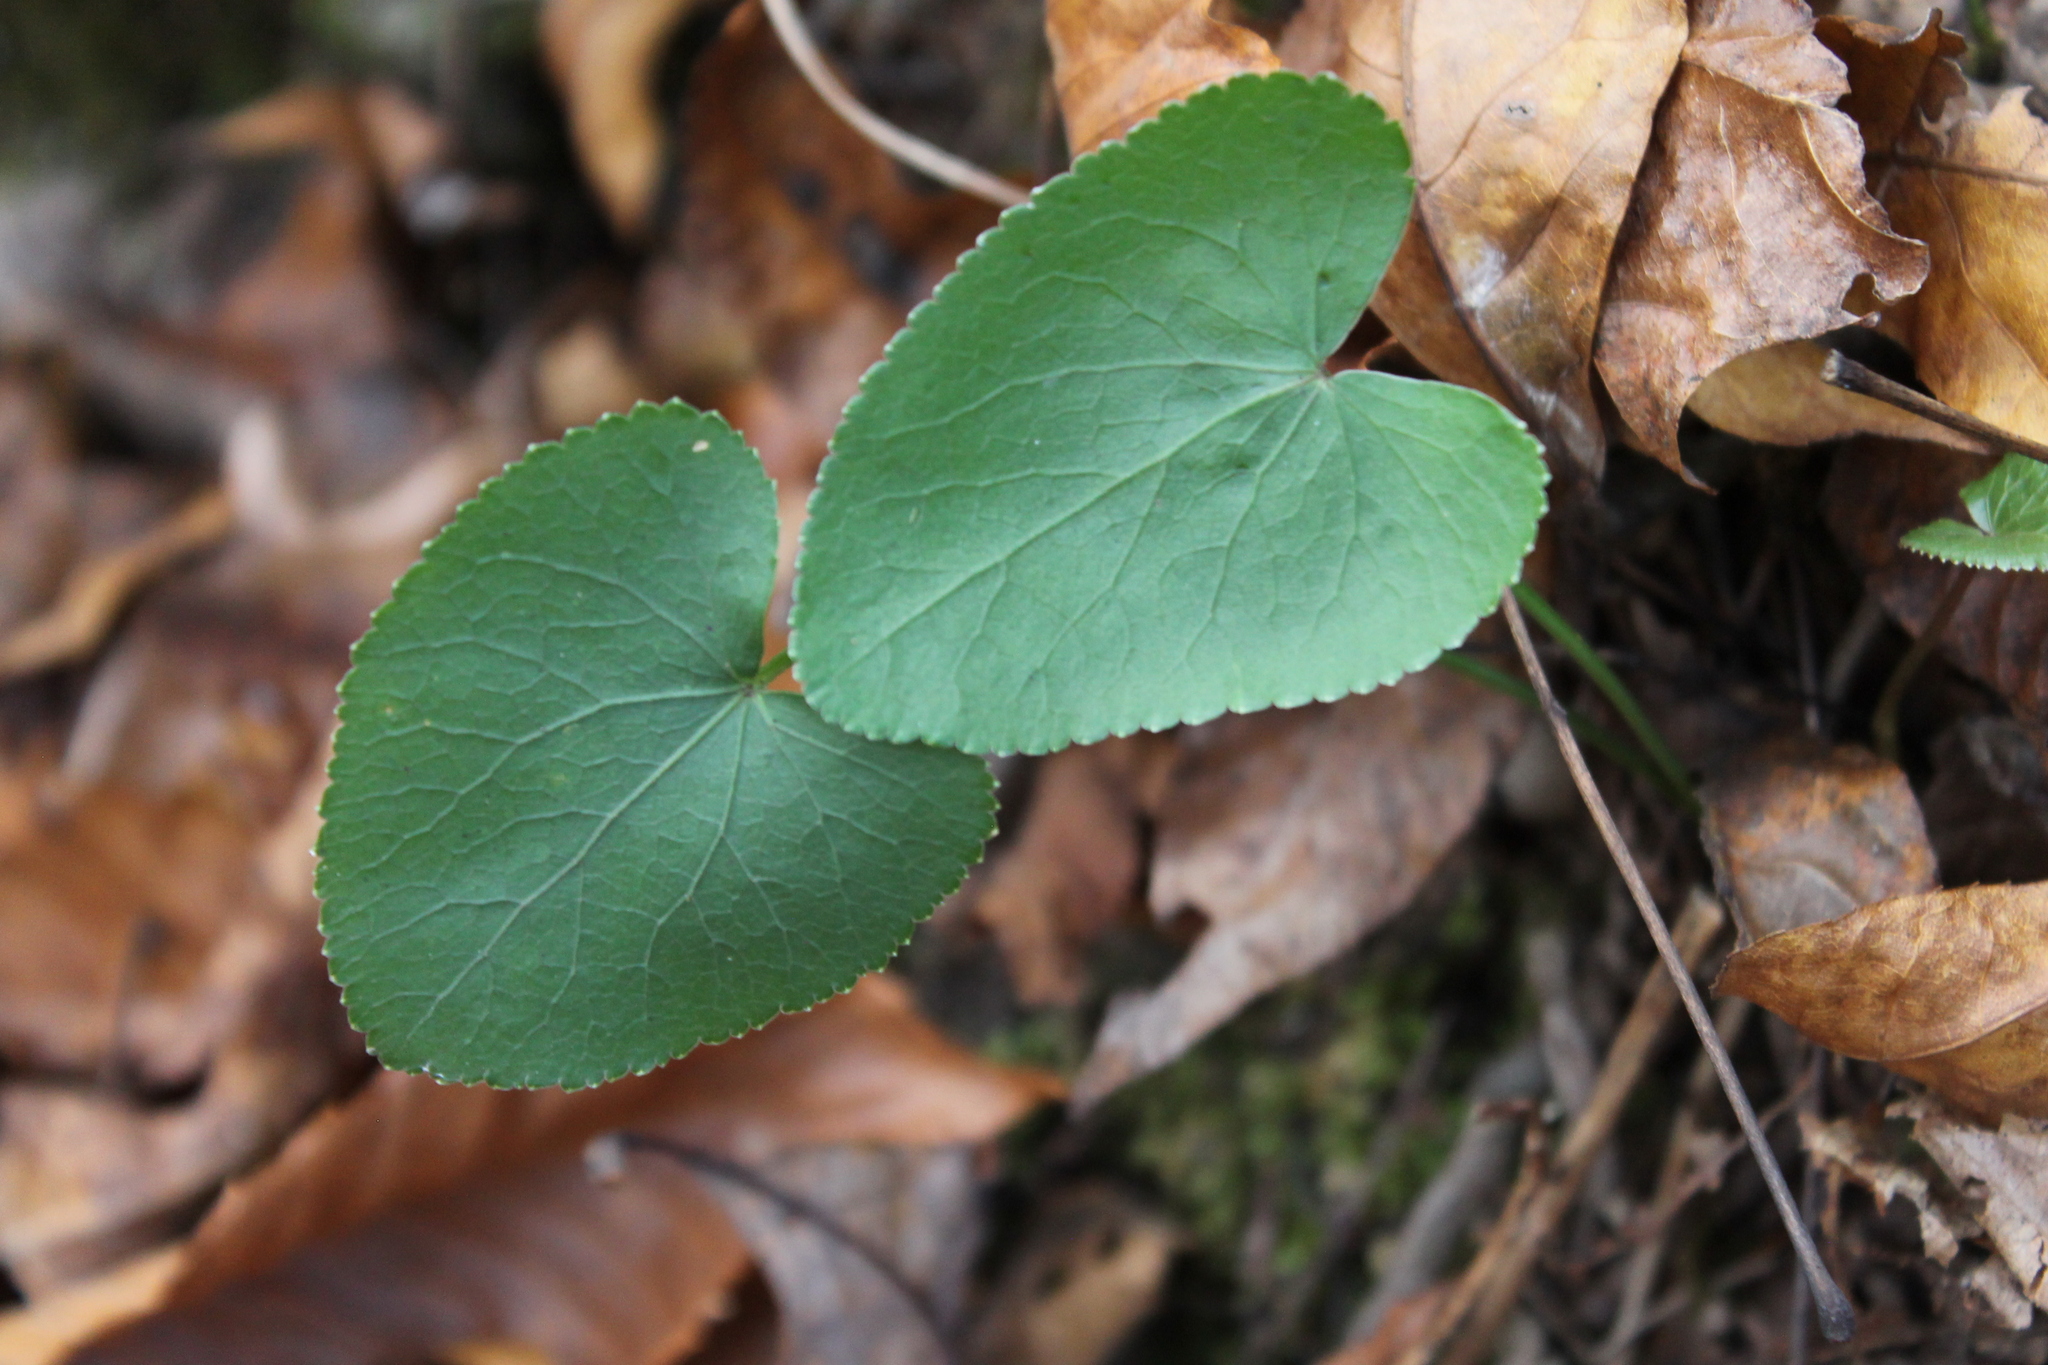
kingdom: Plantae
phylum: Tracheophyta
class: Magnoliopsida
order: Apiales
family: Apiaceae
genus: Thaspium
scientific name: Thaspium trifoliatum
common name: Purple meadow-parsnip
